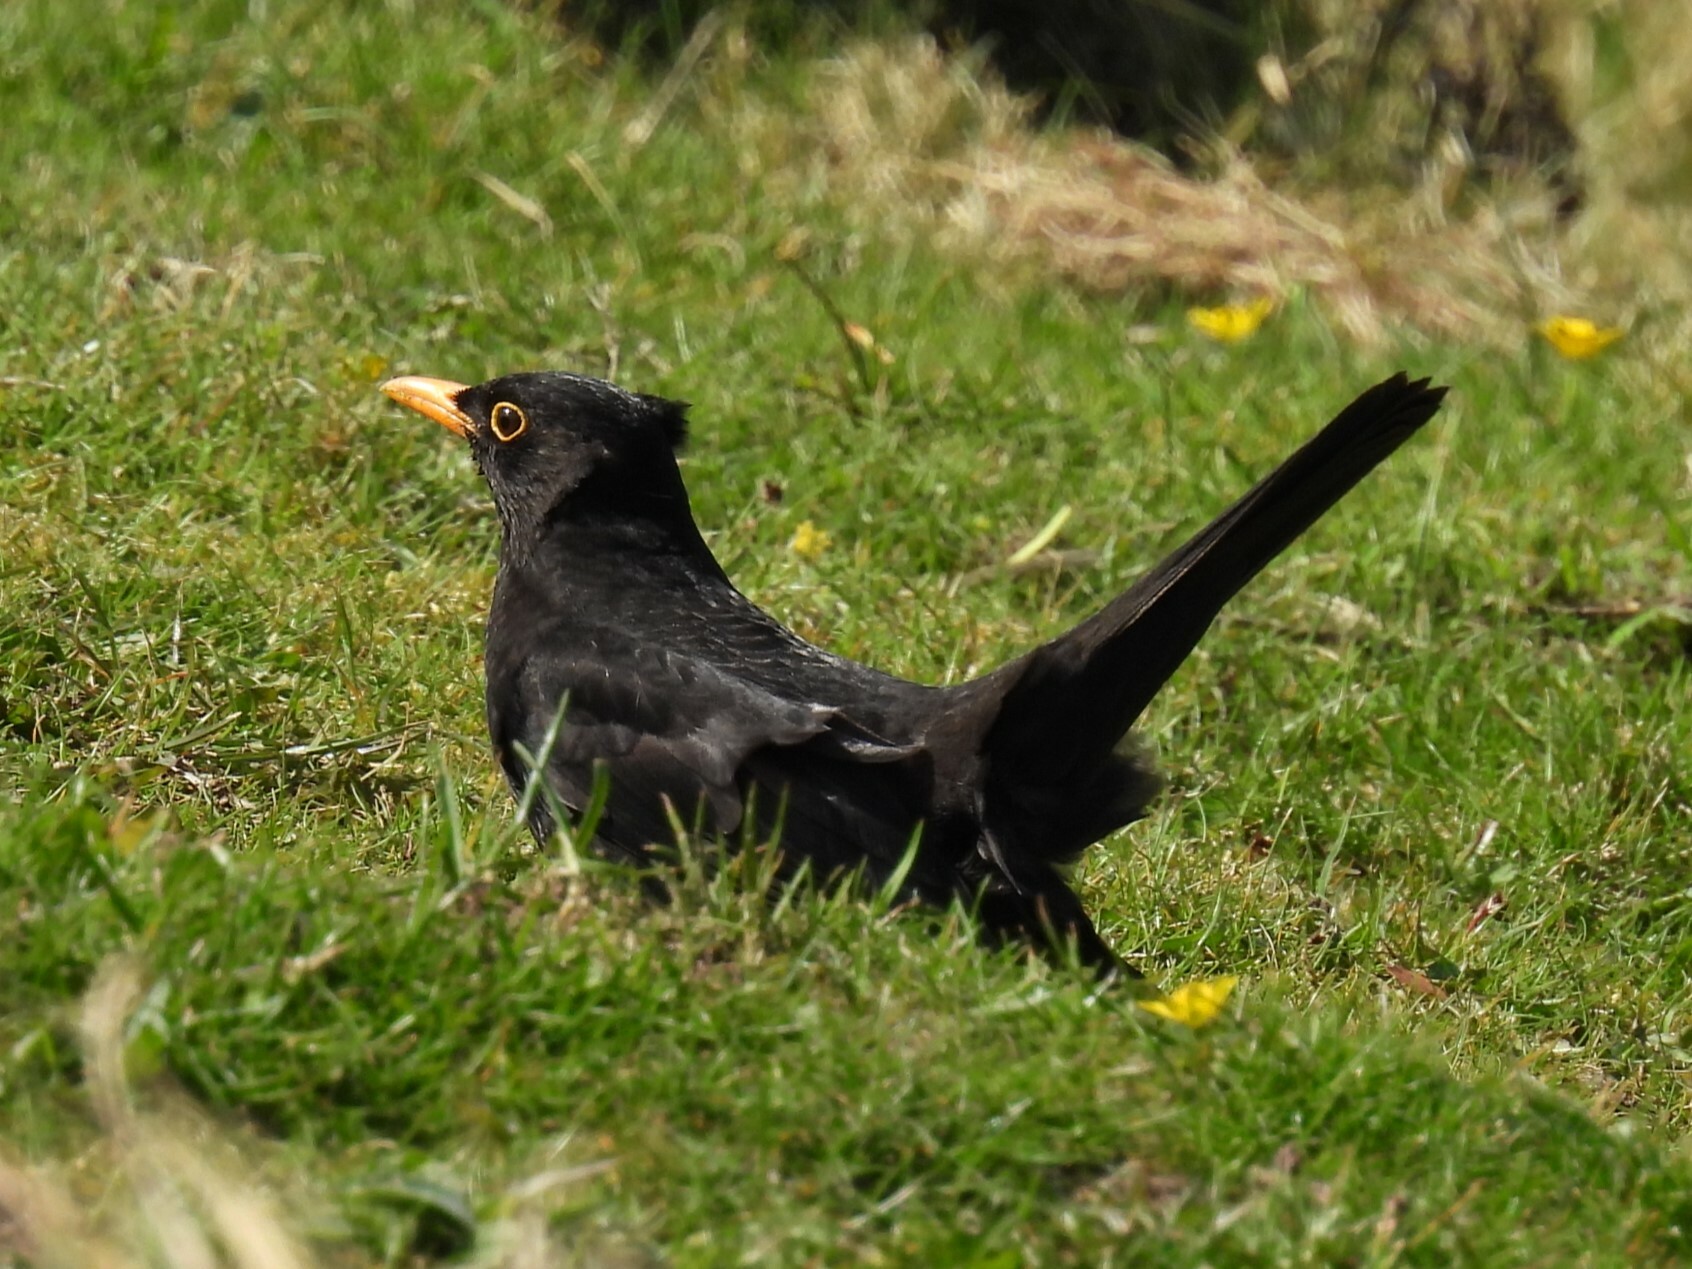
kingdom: Animalia
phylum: Chordata
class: Aves
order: Passeriformes
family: Turdidae
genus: Turdus
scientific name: Turdus merula
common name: Common blackbird
